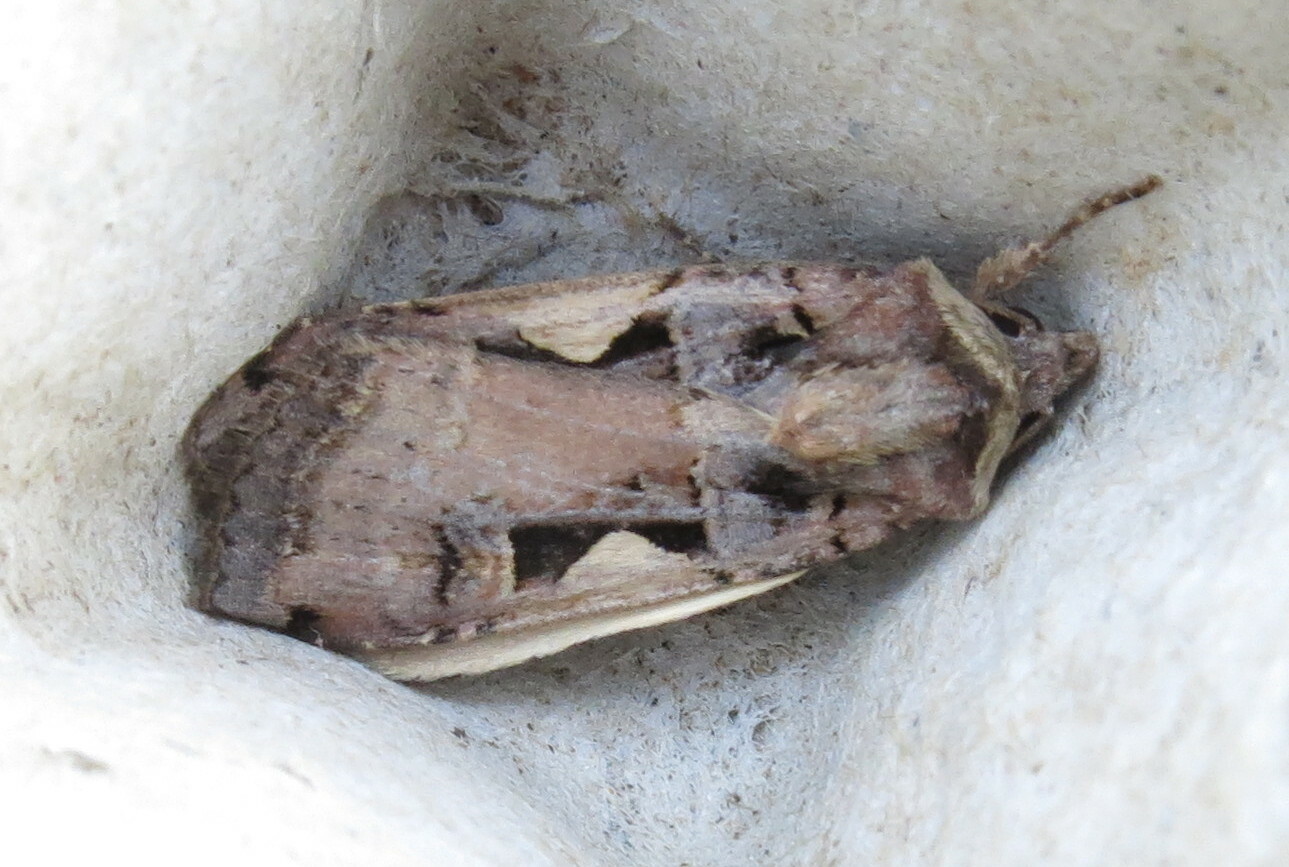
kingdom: Animalia
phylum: Arthropoda
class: Insecta
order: Lepidoptera
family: Noctuidae
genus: Xestia
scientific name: Xestia c-nigrum
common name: Setaceous hebrew character
